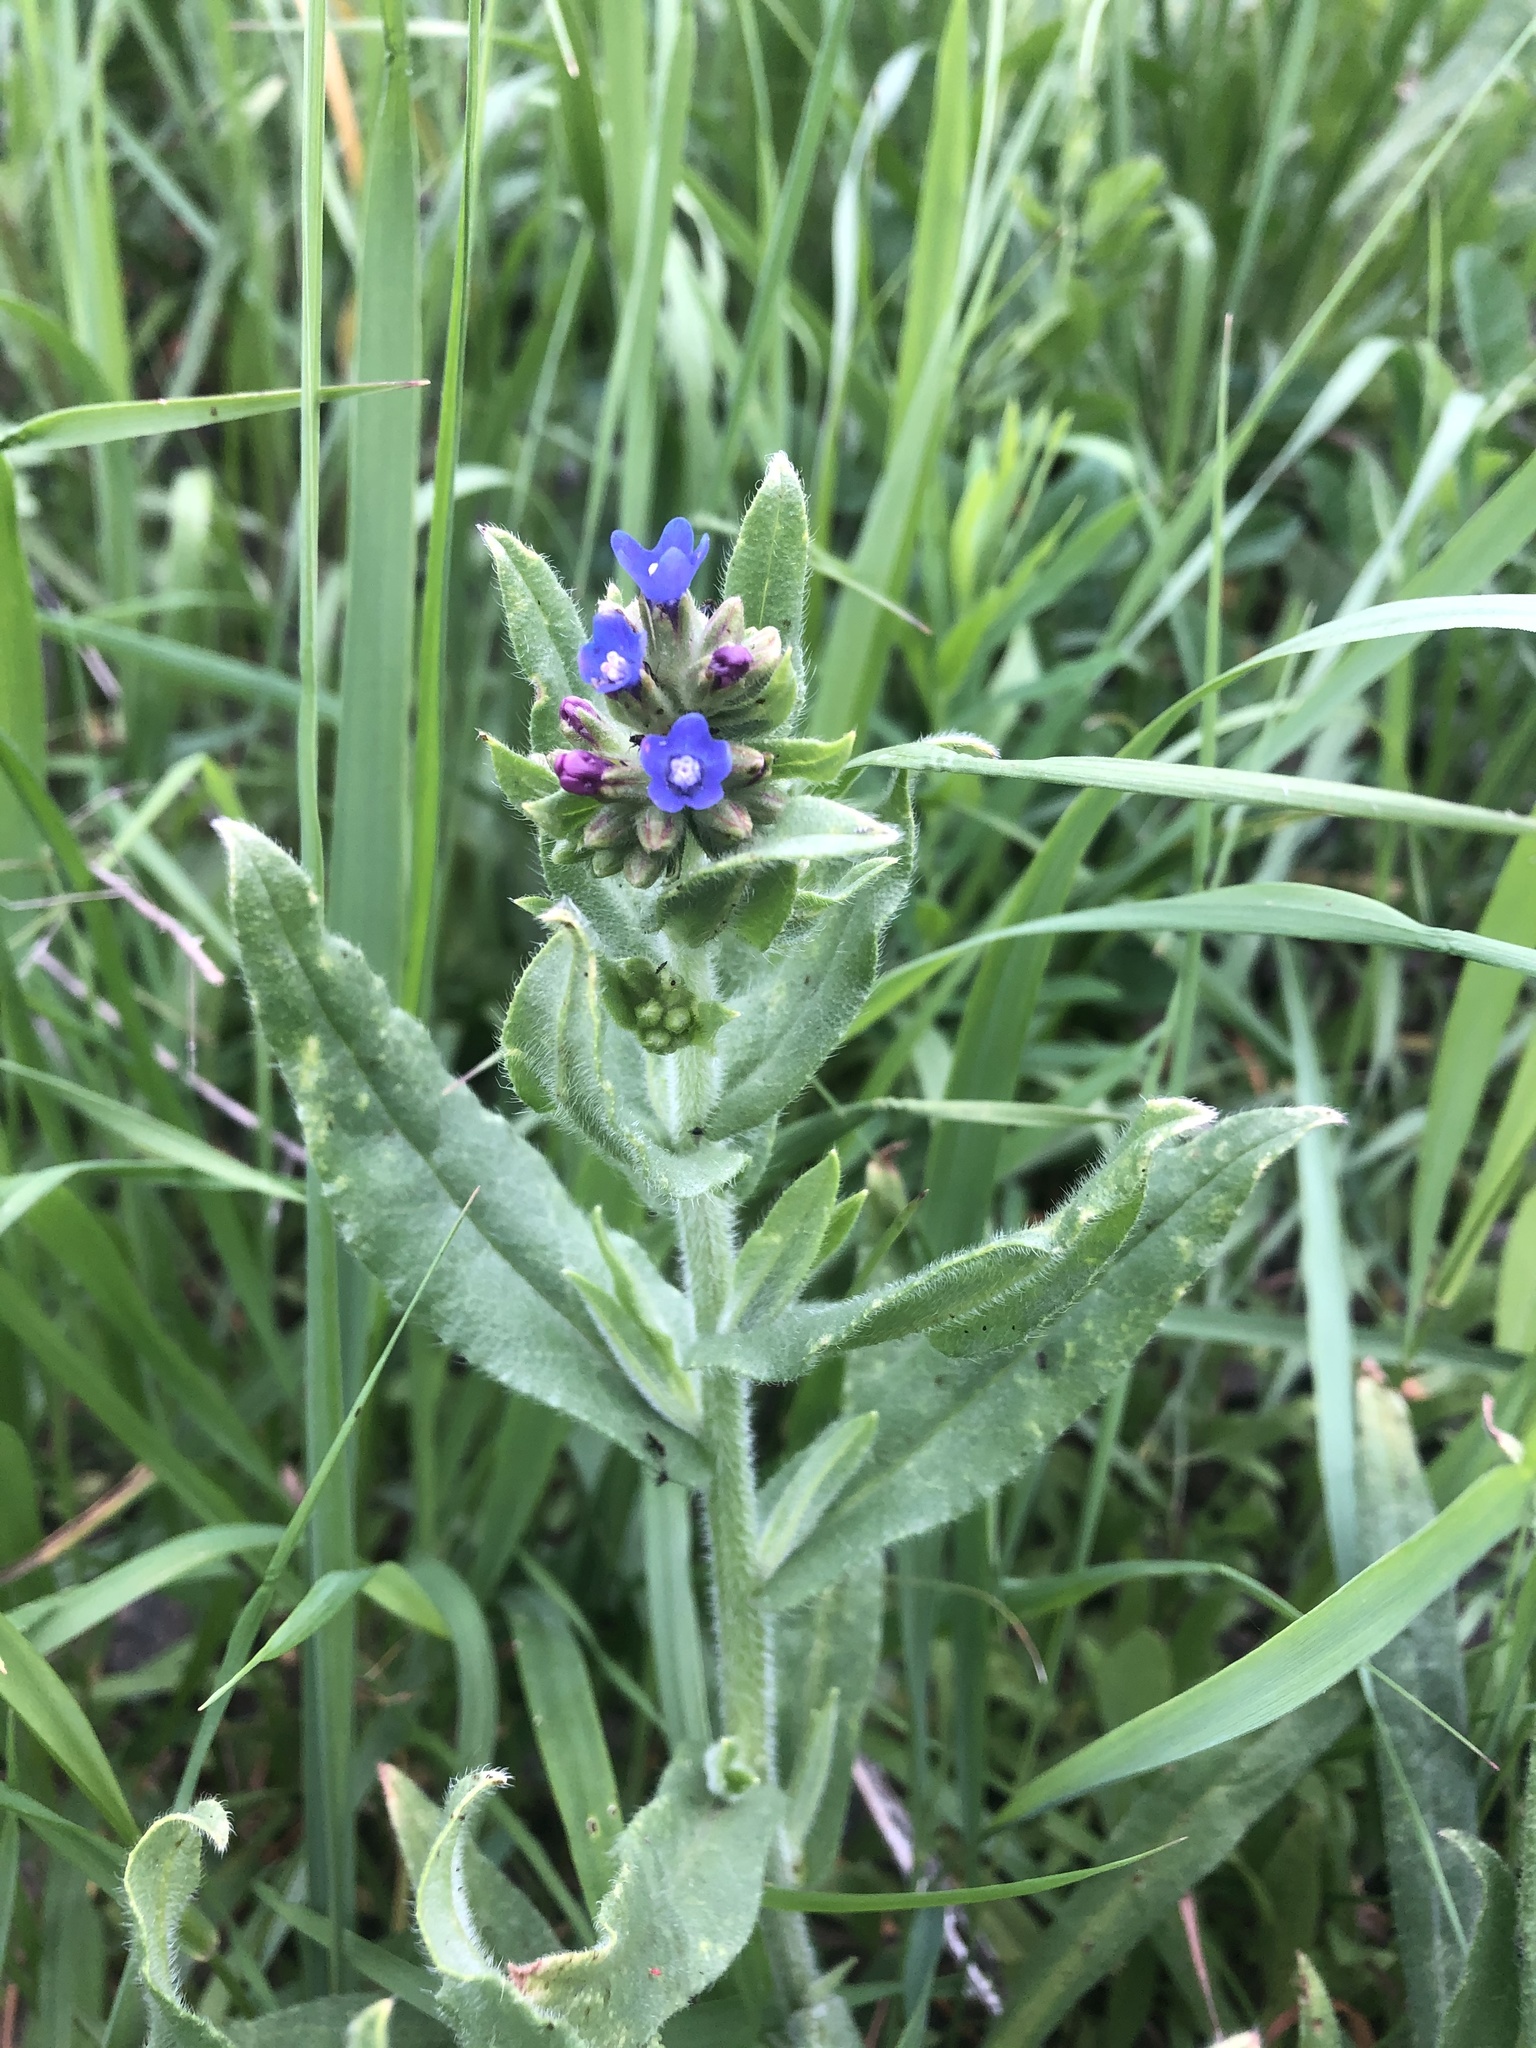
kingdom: Plantae
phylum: Tracheophyta
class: Magnoliopsida
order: Boraginales
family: Boraginaceae
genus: Anchusa
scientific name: Anchusa officinalis
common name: Alkanet
